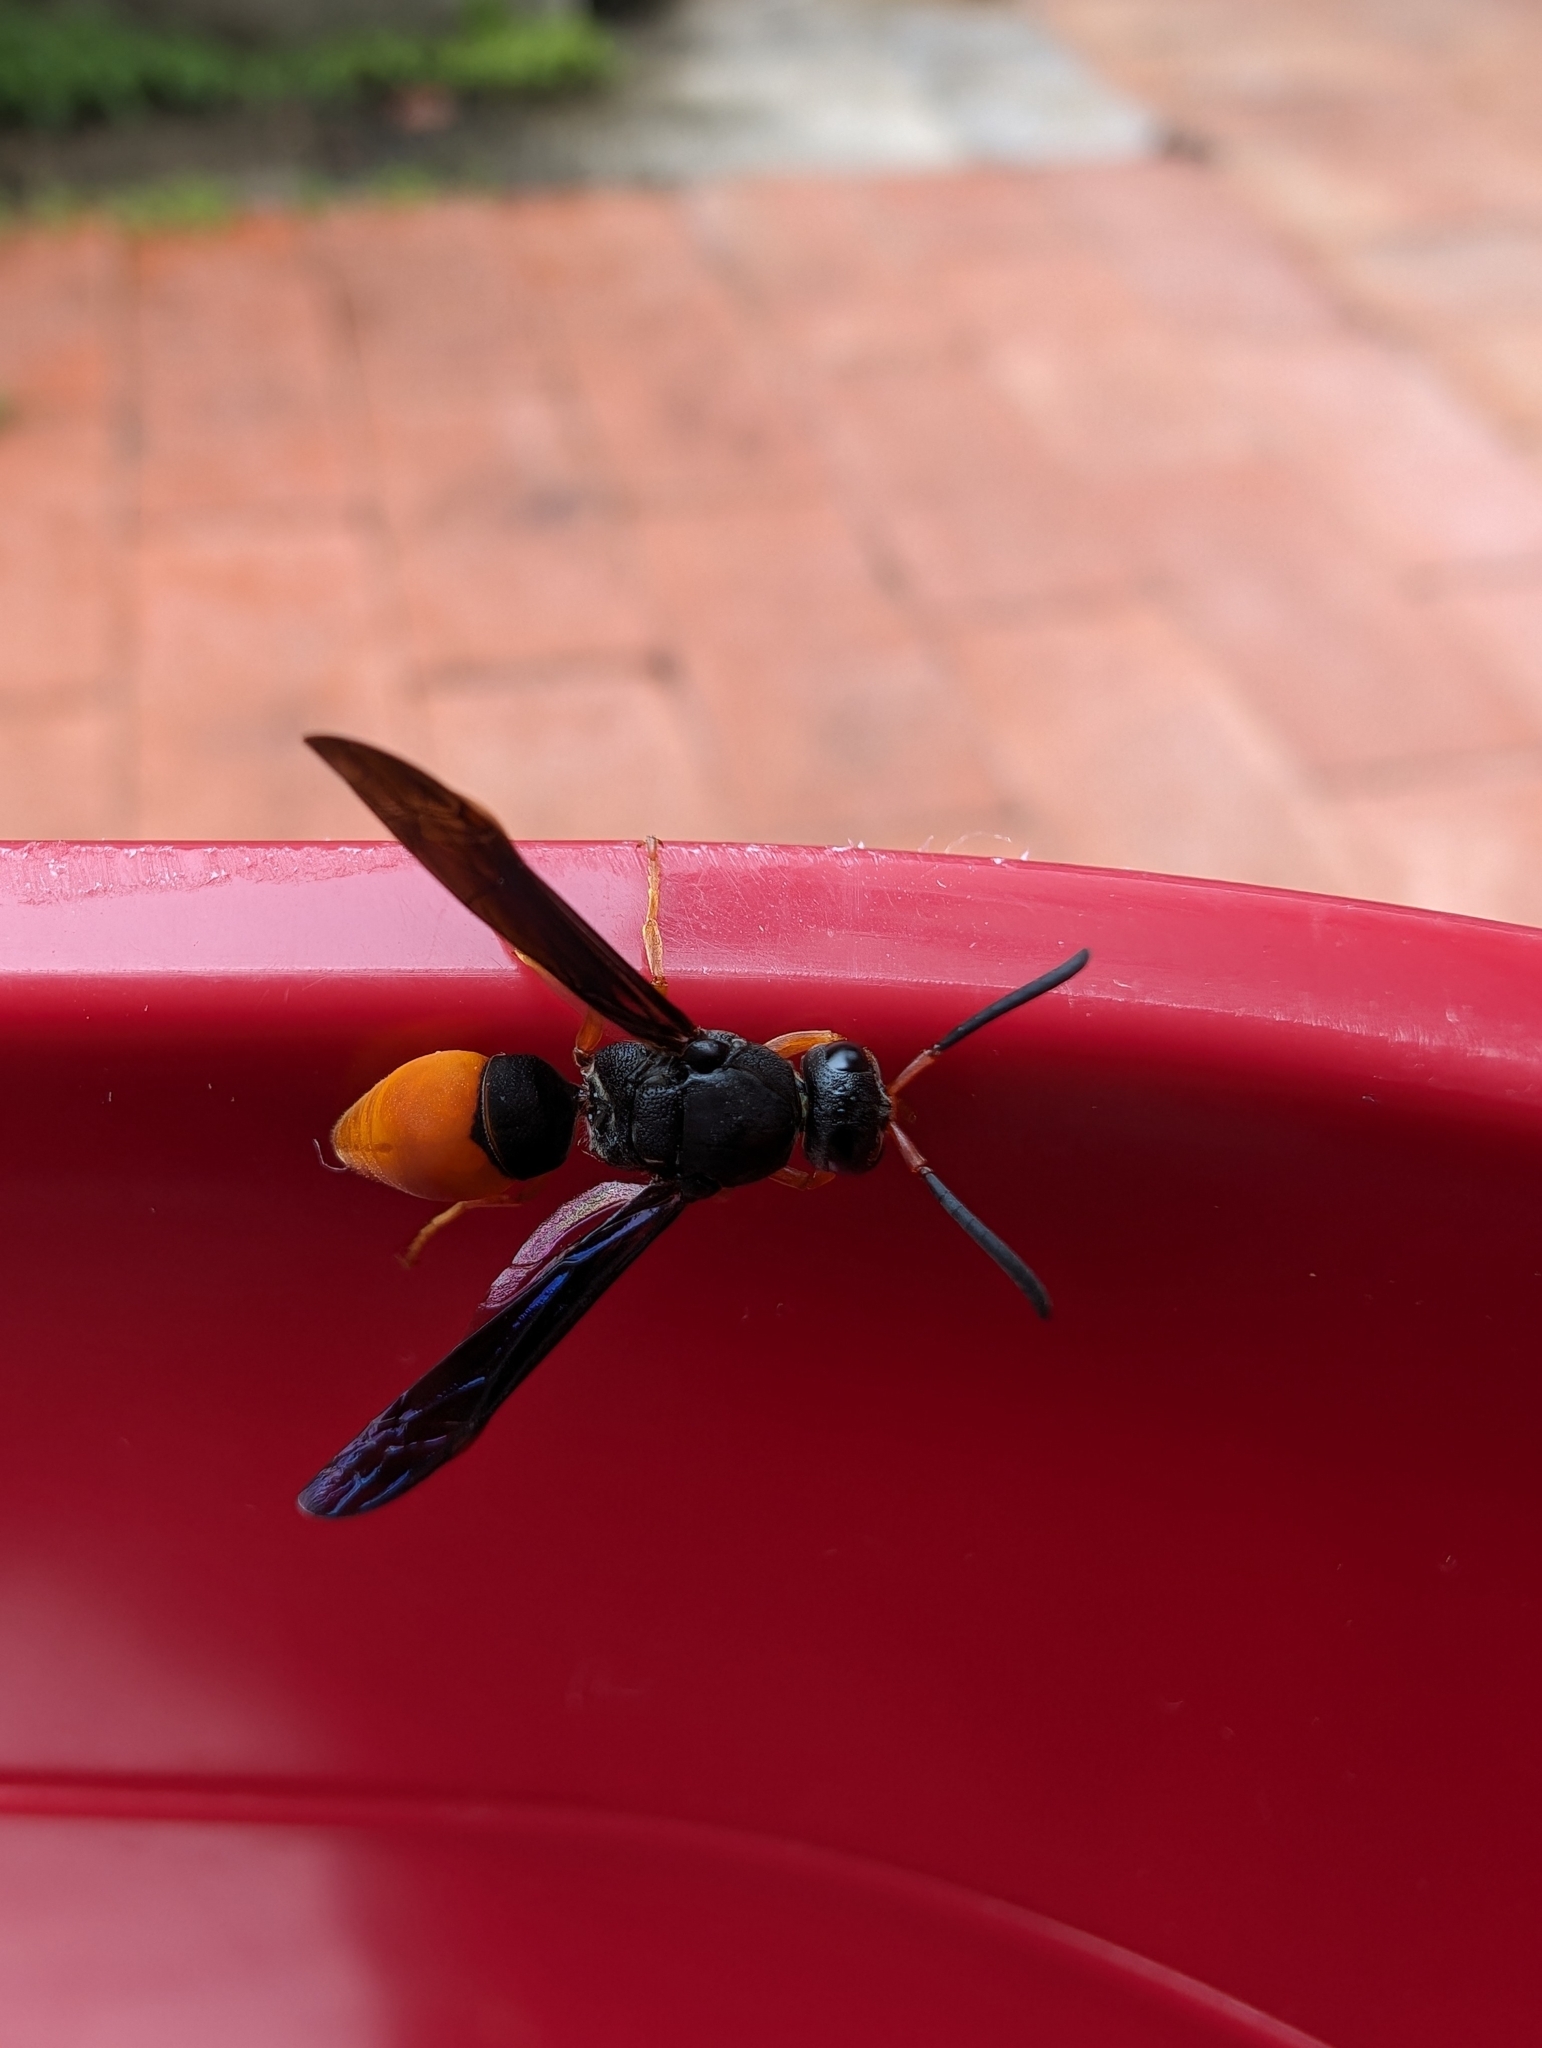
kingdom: Animalia
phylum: Arthropoda
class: Insecta
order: Hymenoptera
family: Eumenidae
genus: Pseudabispa
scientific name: Pseudabispa bicolor
